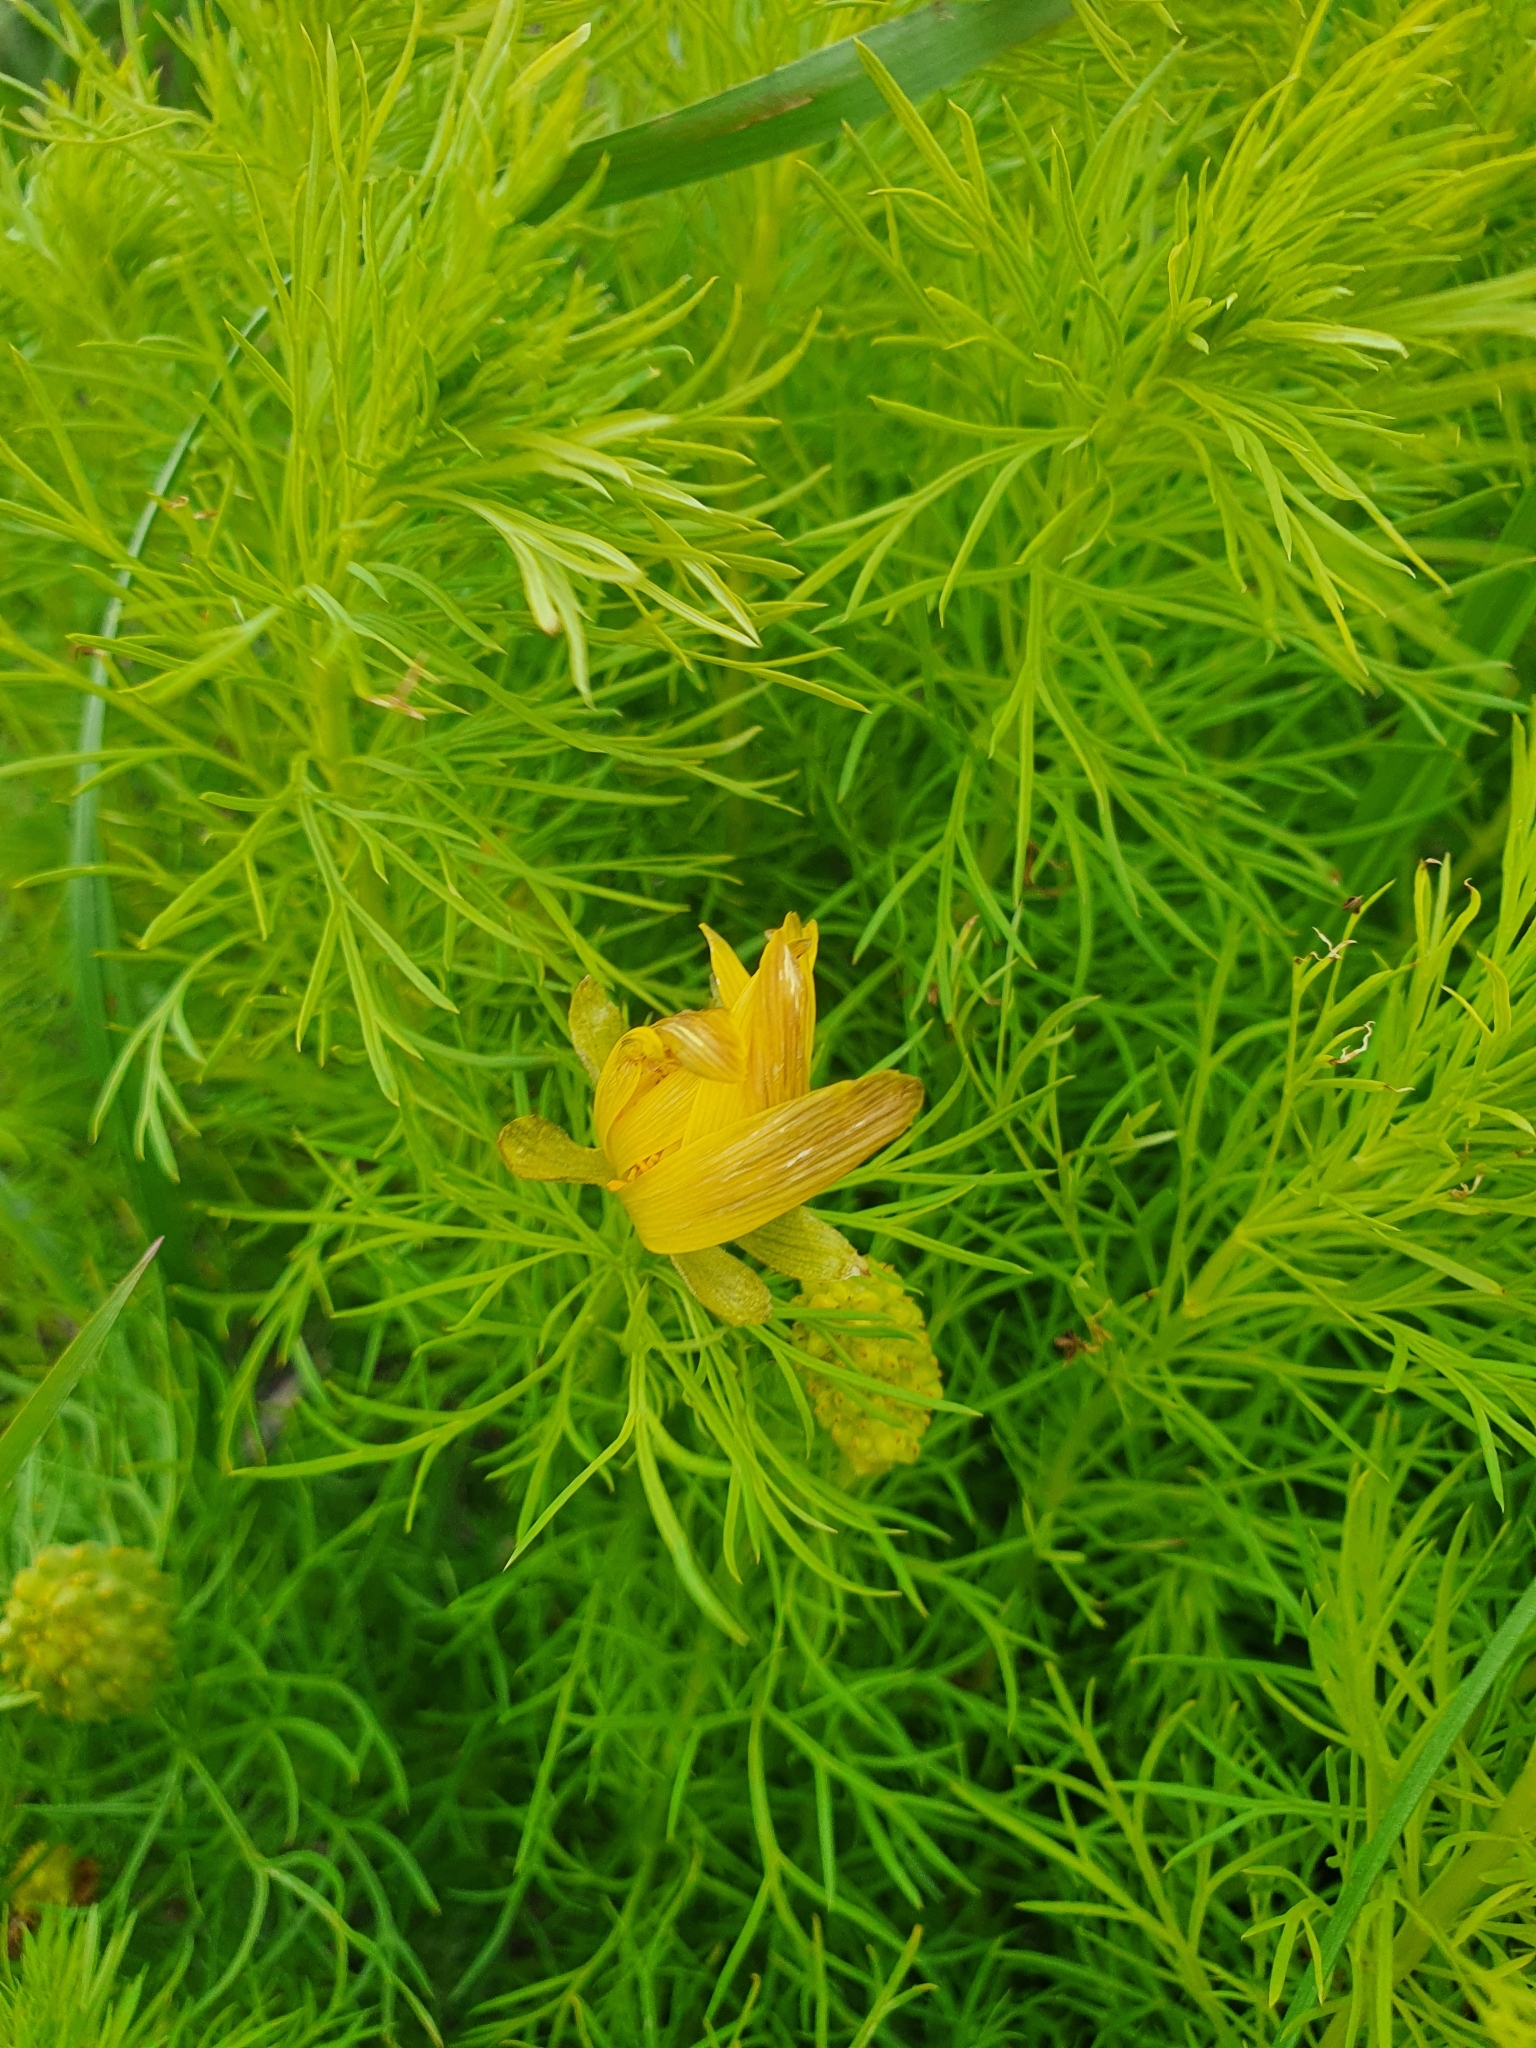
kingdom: Plantae
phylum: Tracheophyta
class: Magnoliopsida
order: Ranunculales
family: Ranunculaceae
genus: Adonis
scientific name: Adonis vernalis
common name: Yellow pheasants-eye
